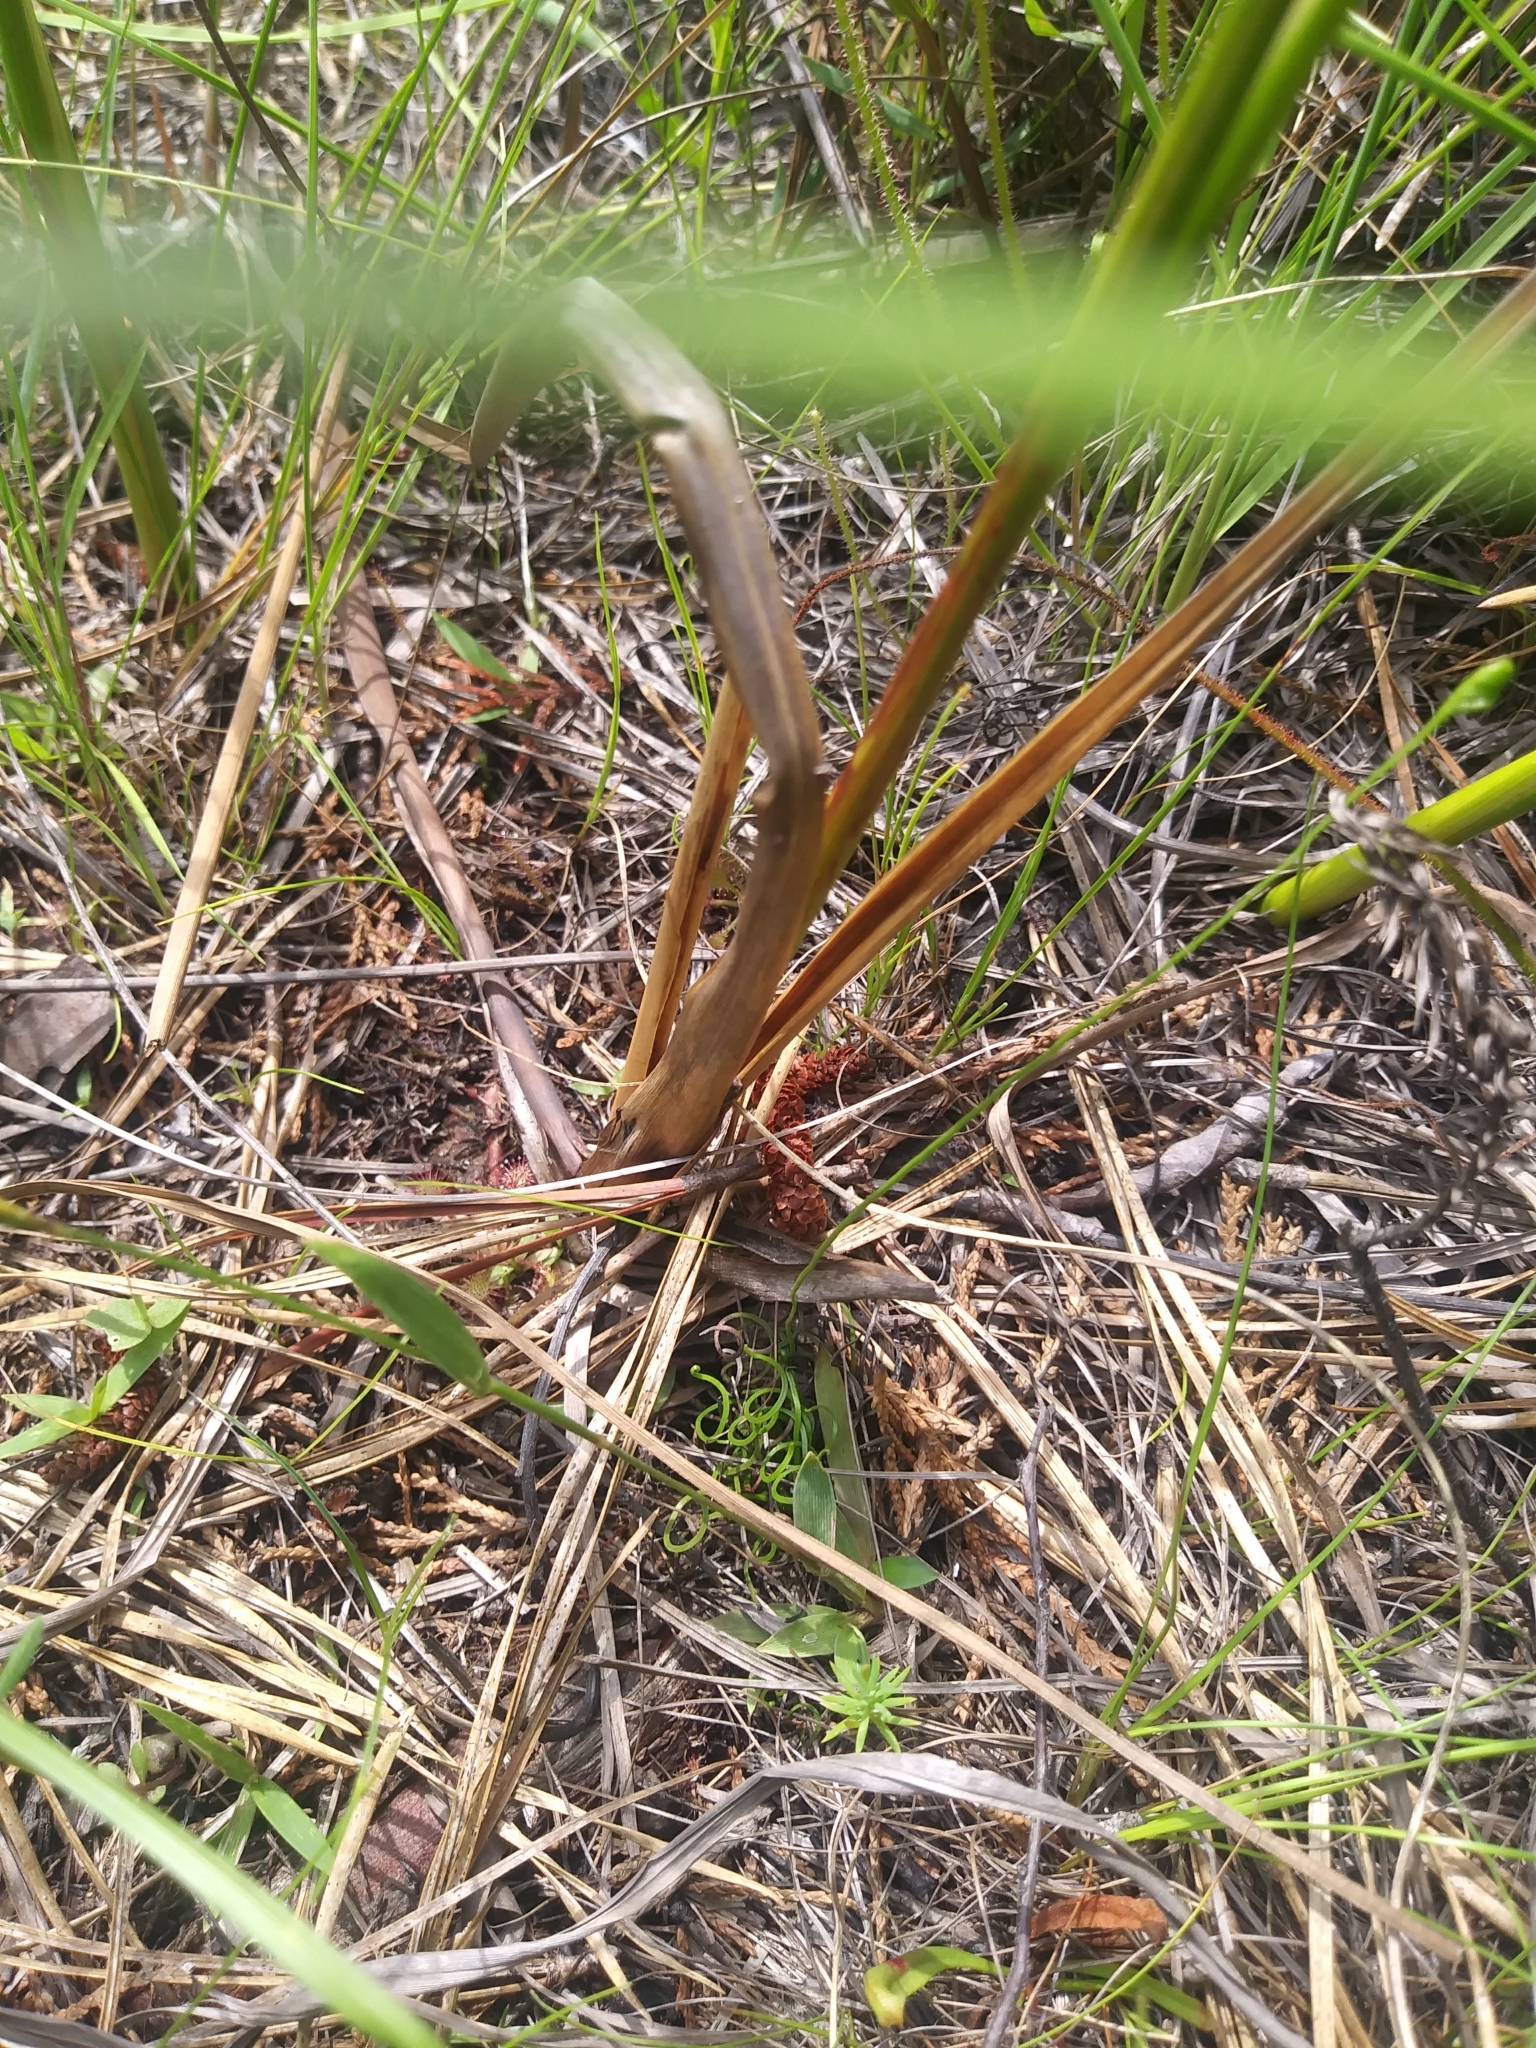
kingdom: Plantae
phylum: Tracheophyta
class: Polypodiopsida
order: Schizaeales
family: Schizaeaceae
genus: Schizaea
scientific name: Schizaea pusilla
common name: Curly-grass fern
